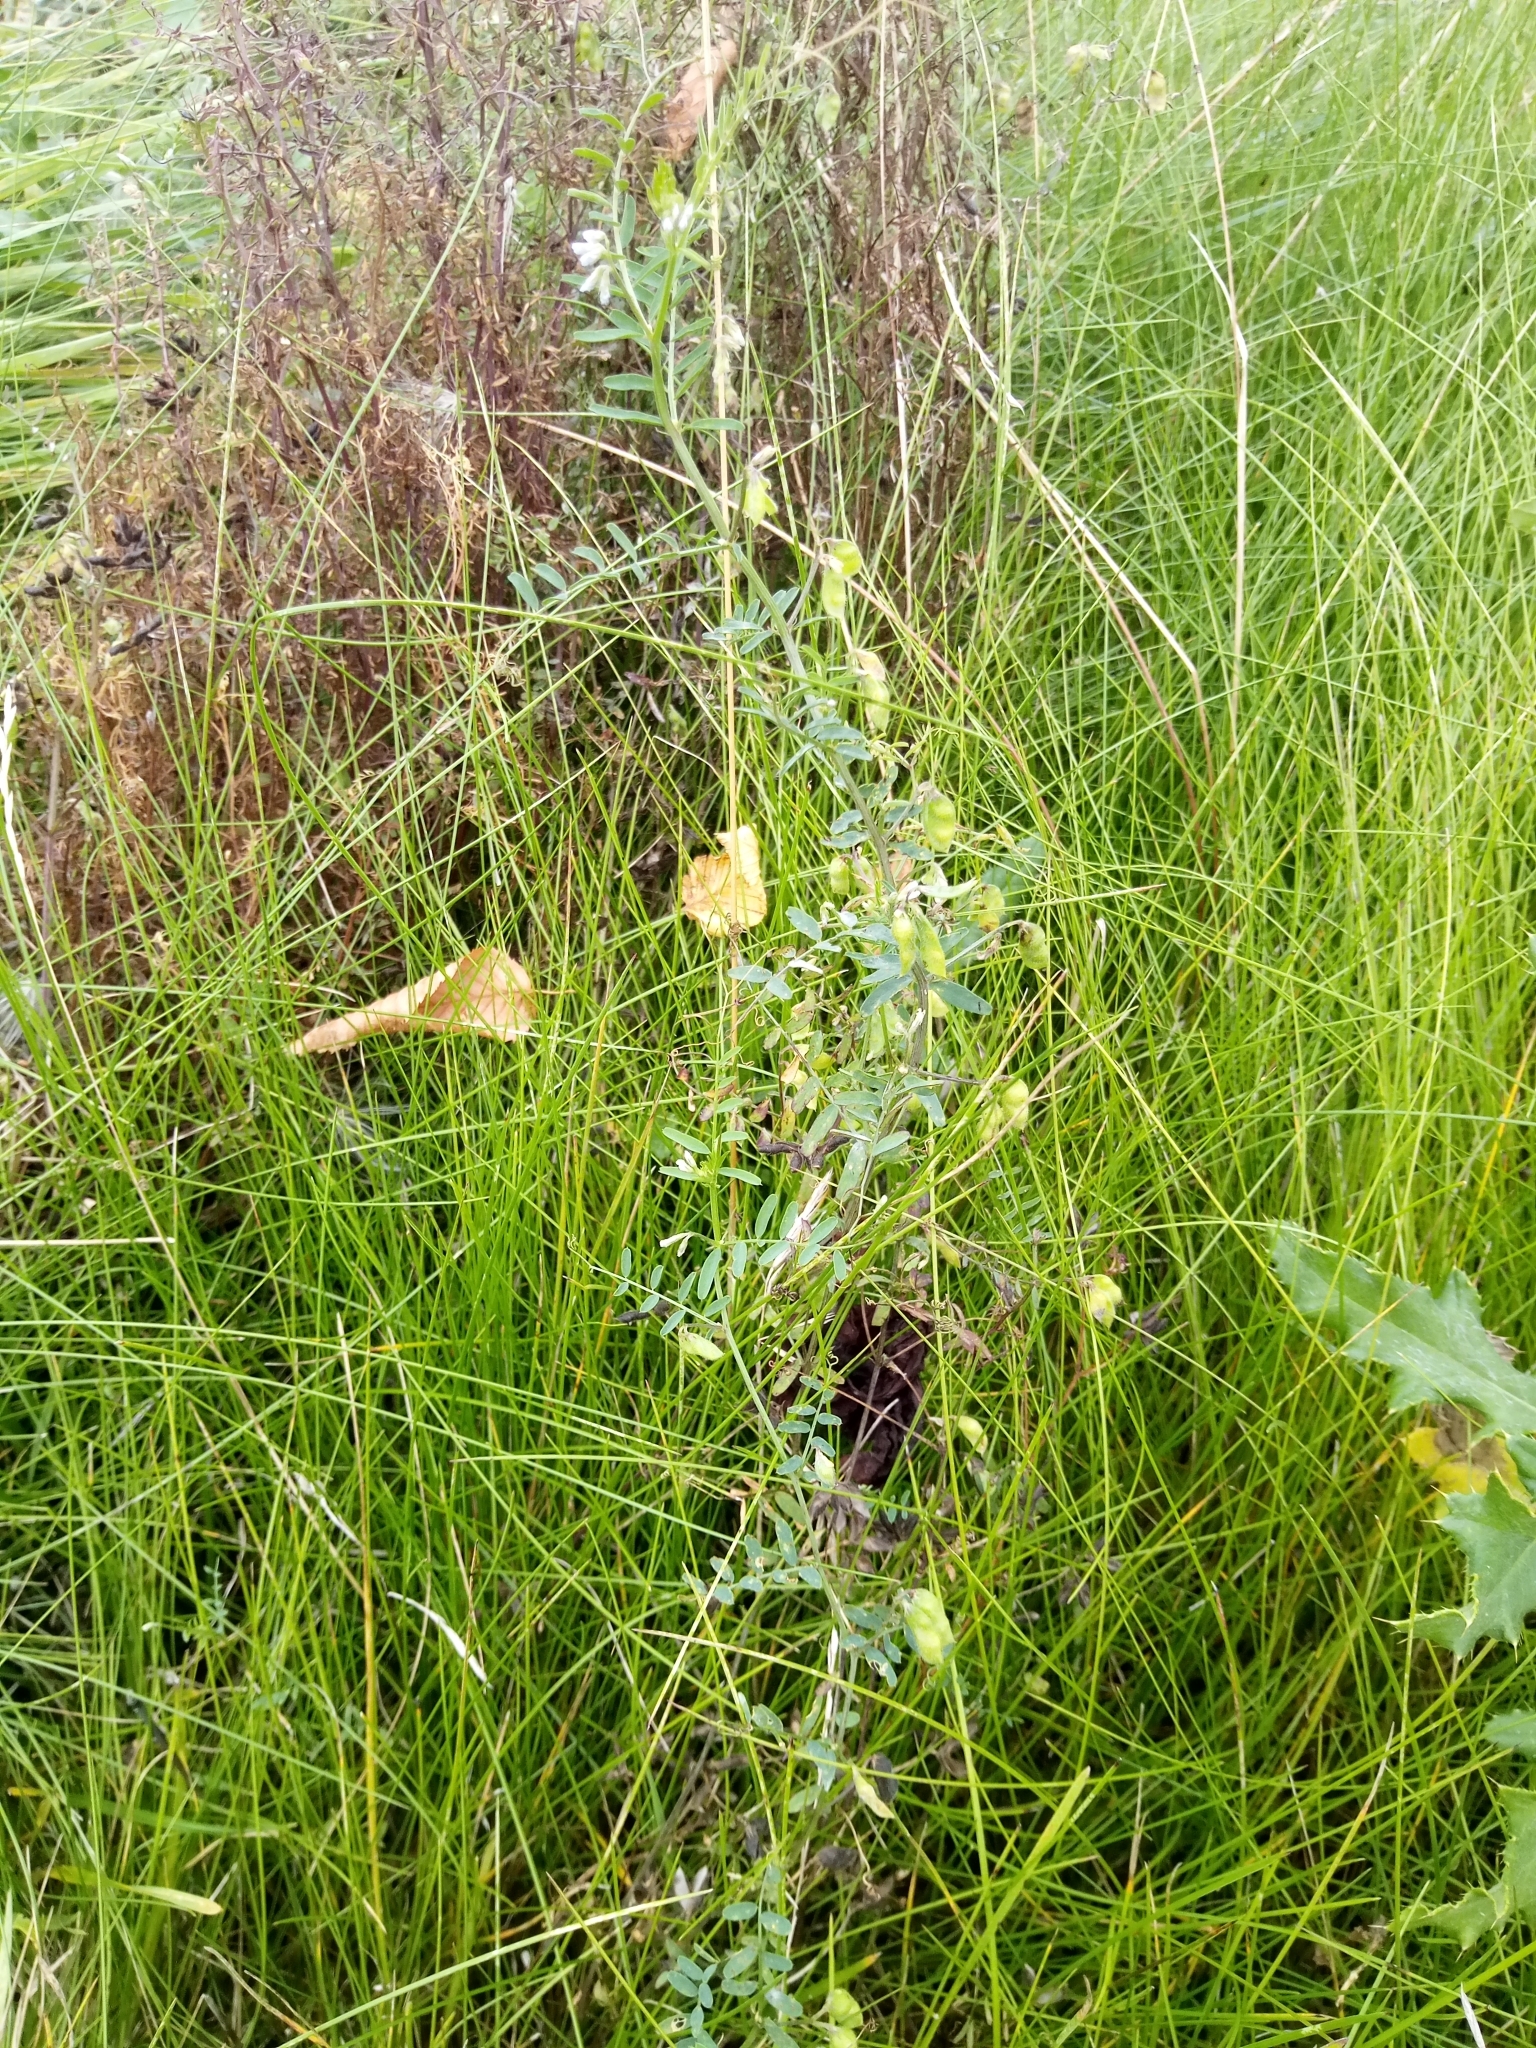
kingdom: Plantae
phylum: Tracheophyta
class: Magnoliopsida
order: Fabales
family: Fabaceae
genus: Vicia
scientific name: Vicia hirsuta
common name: Tiny vetch
